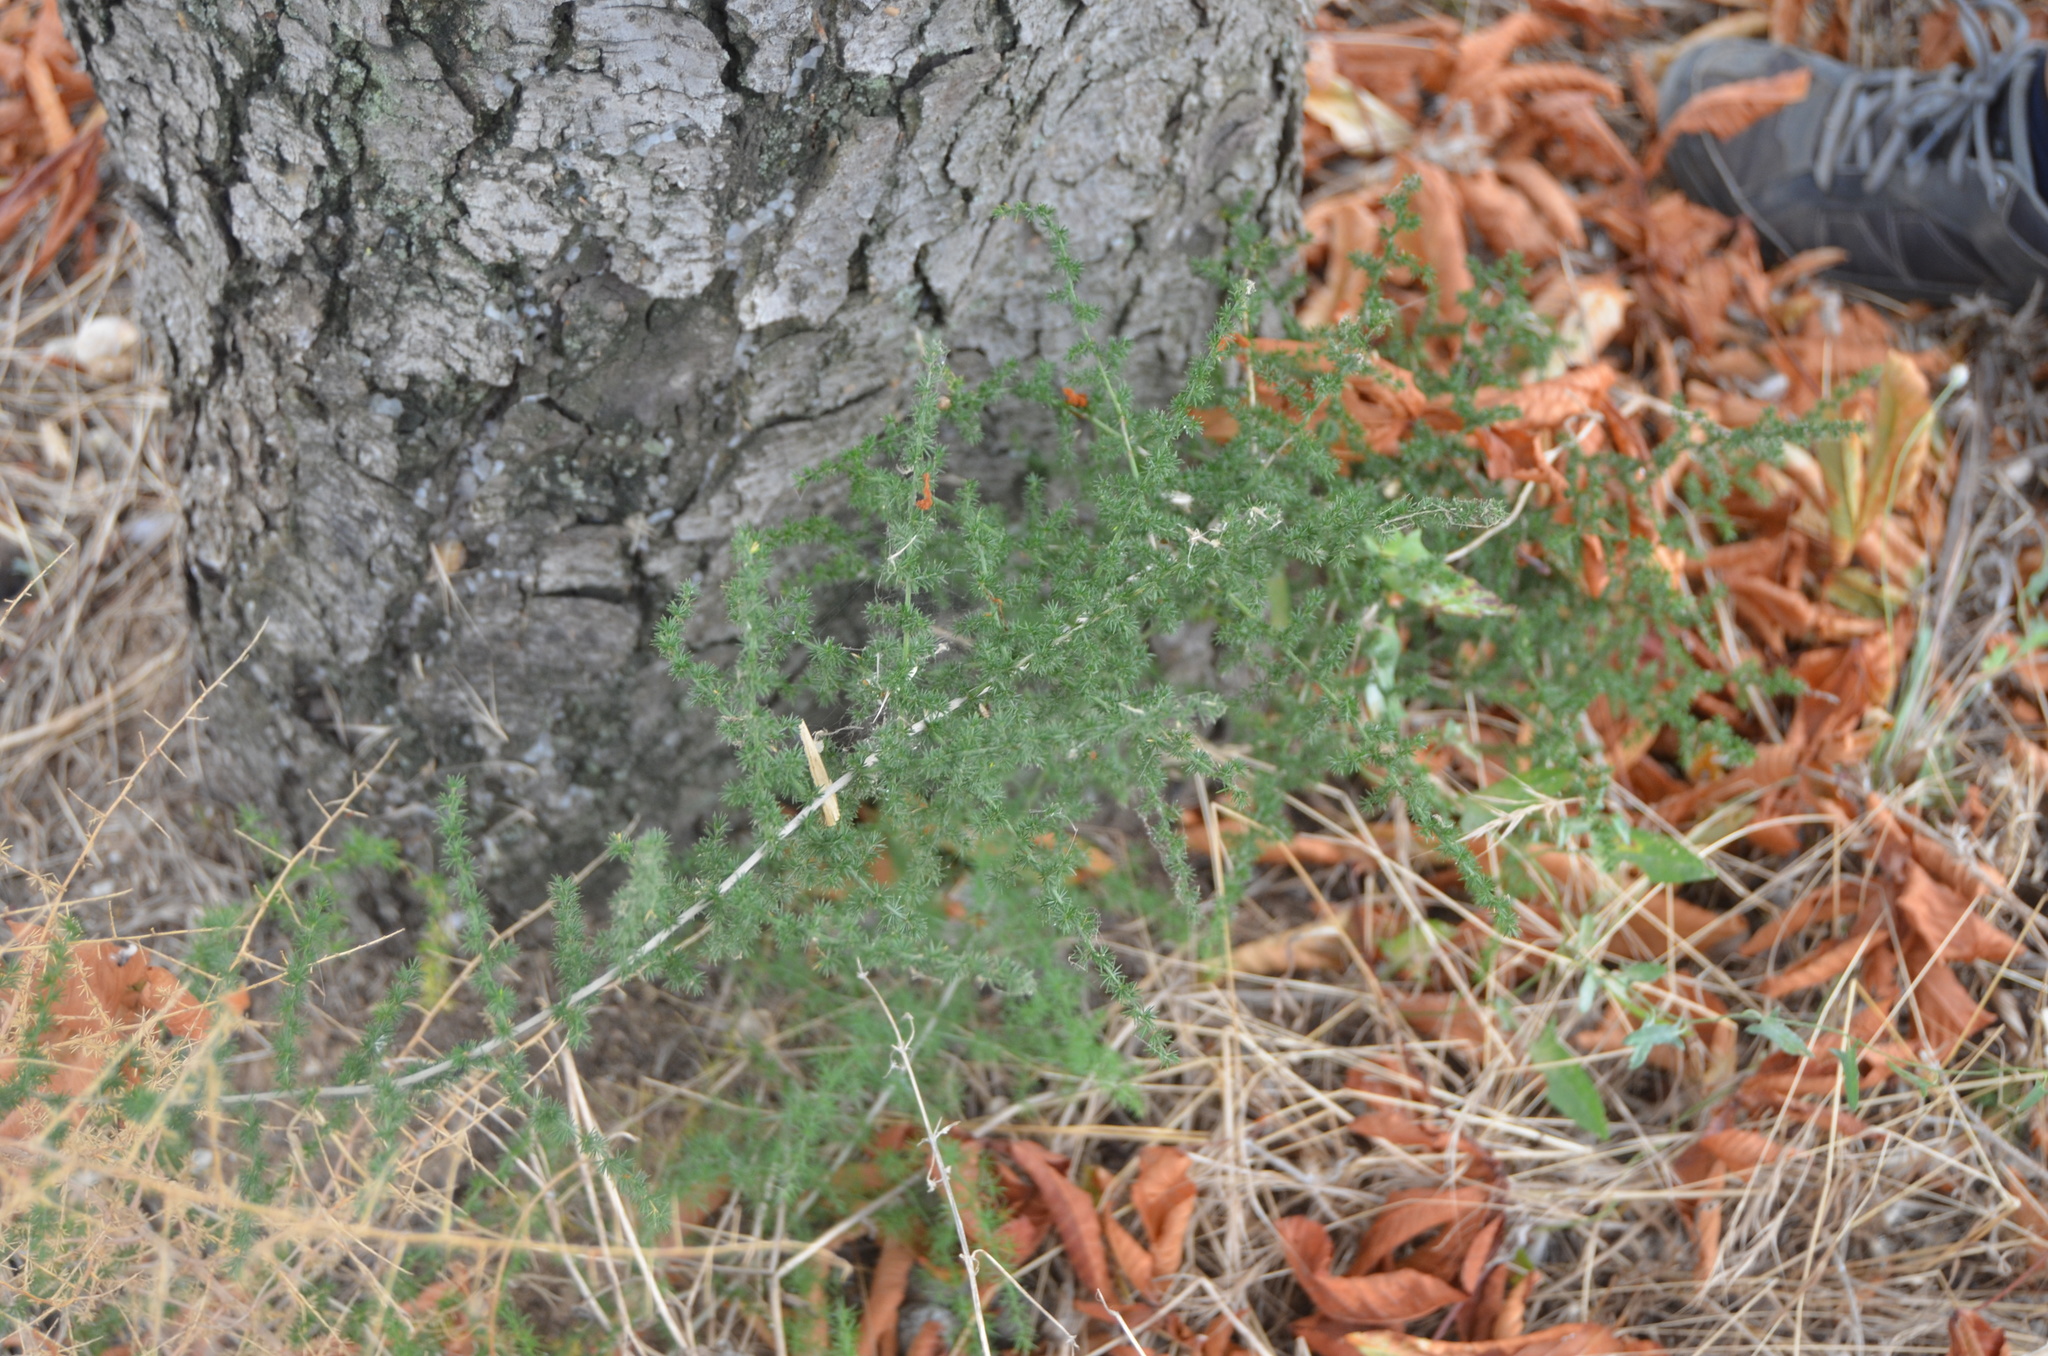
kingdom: Plantae
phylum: Tracheophyta
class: Liliopsida
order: Asparagales
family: Asparagaceae
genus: Asparagus
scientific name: Asparagus acutifolius
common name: Wild asparagus
